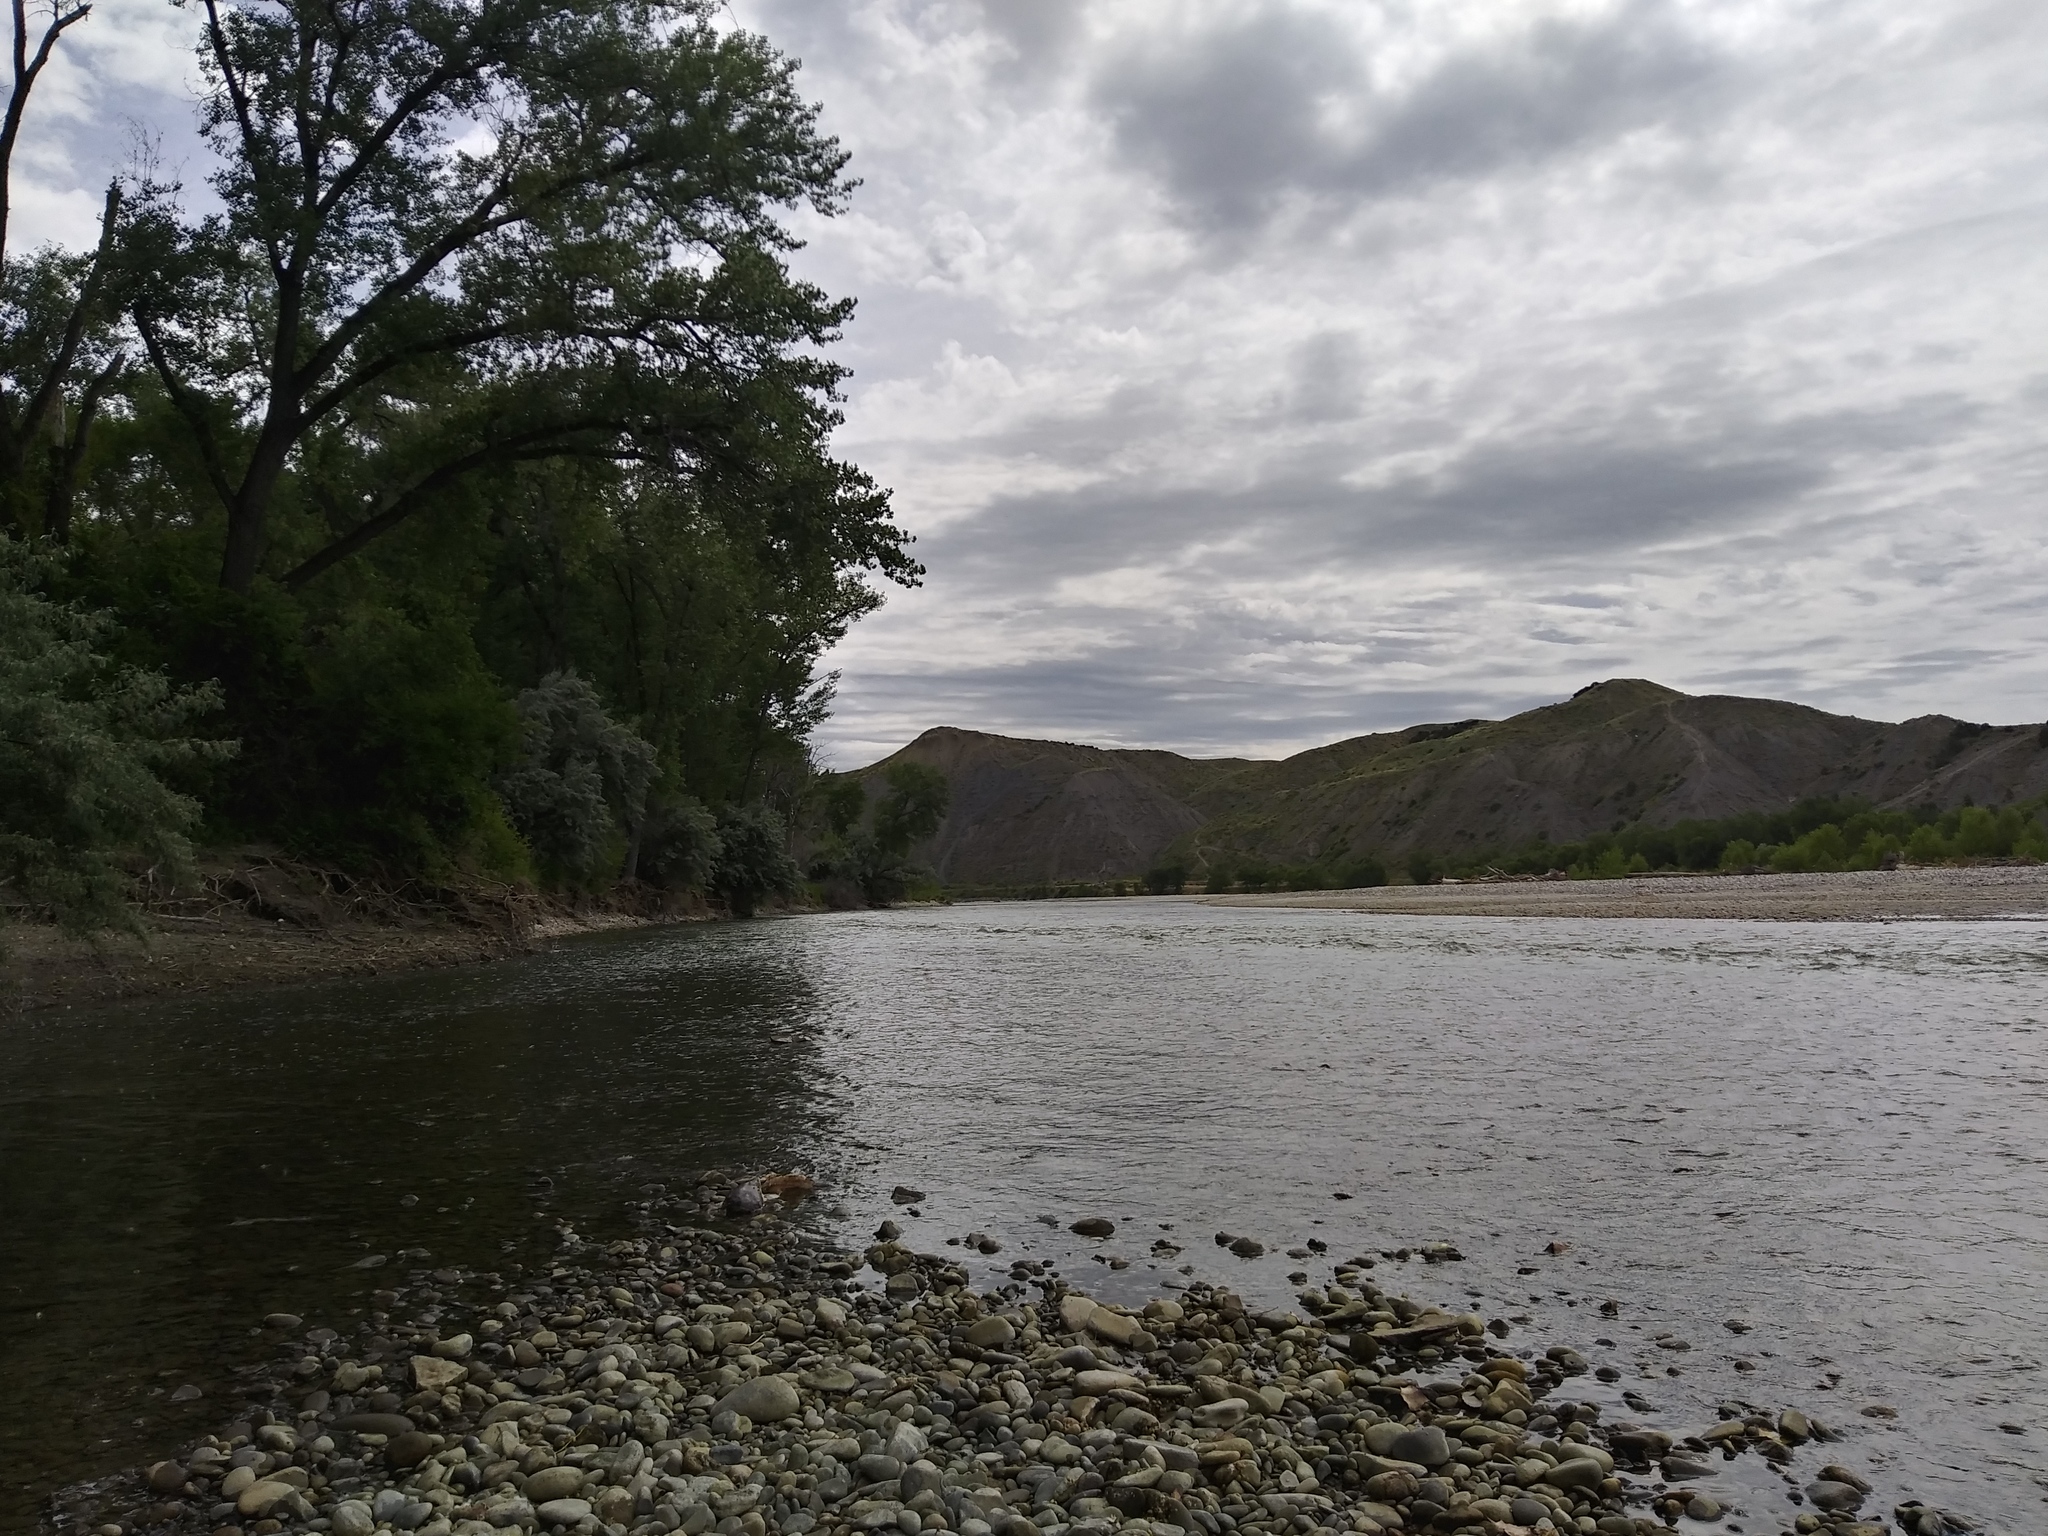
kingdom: Animalia
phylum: Chordata
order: Siluriformes
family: Ictaluridae
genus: Ictalurus
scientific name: Ictalurus punctatus
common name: Channel catfish
